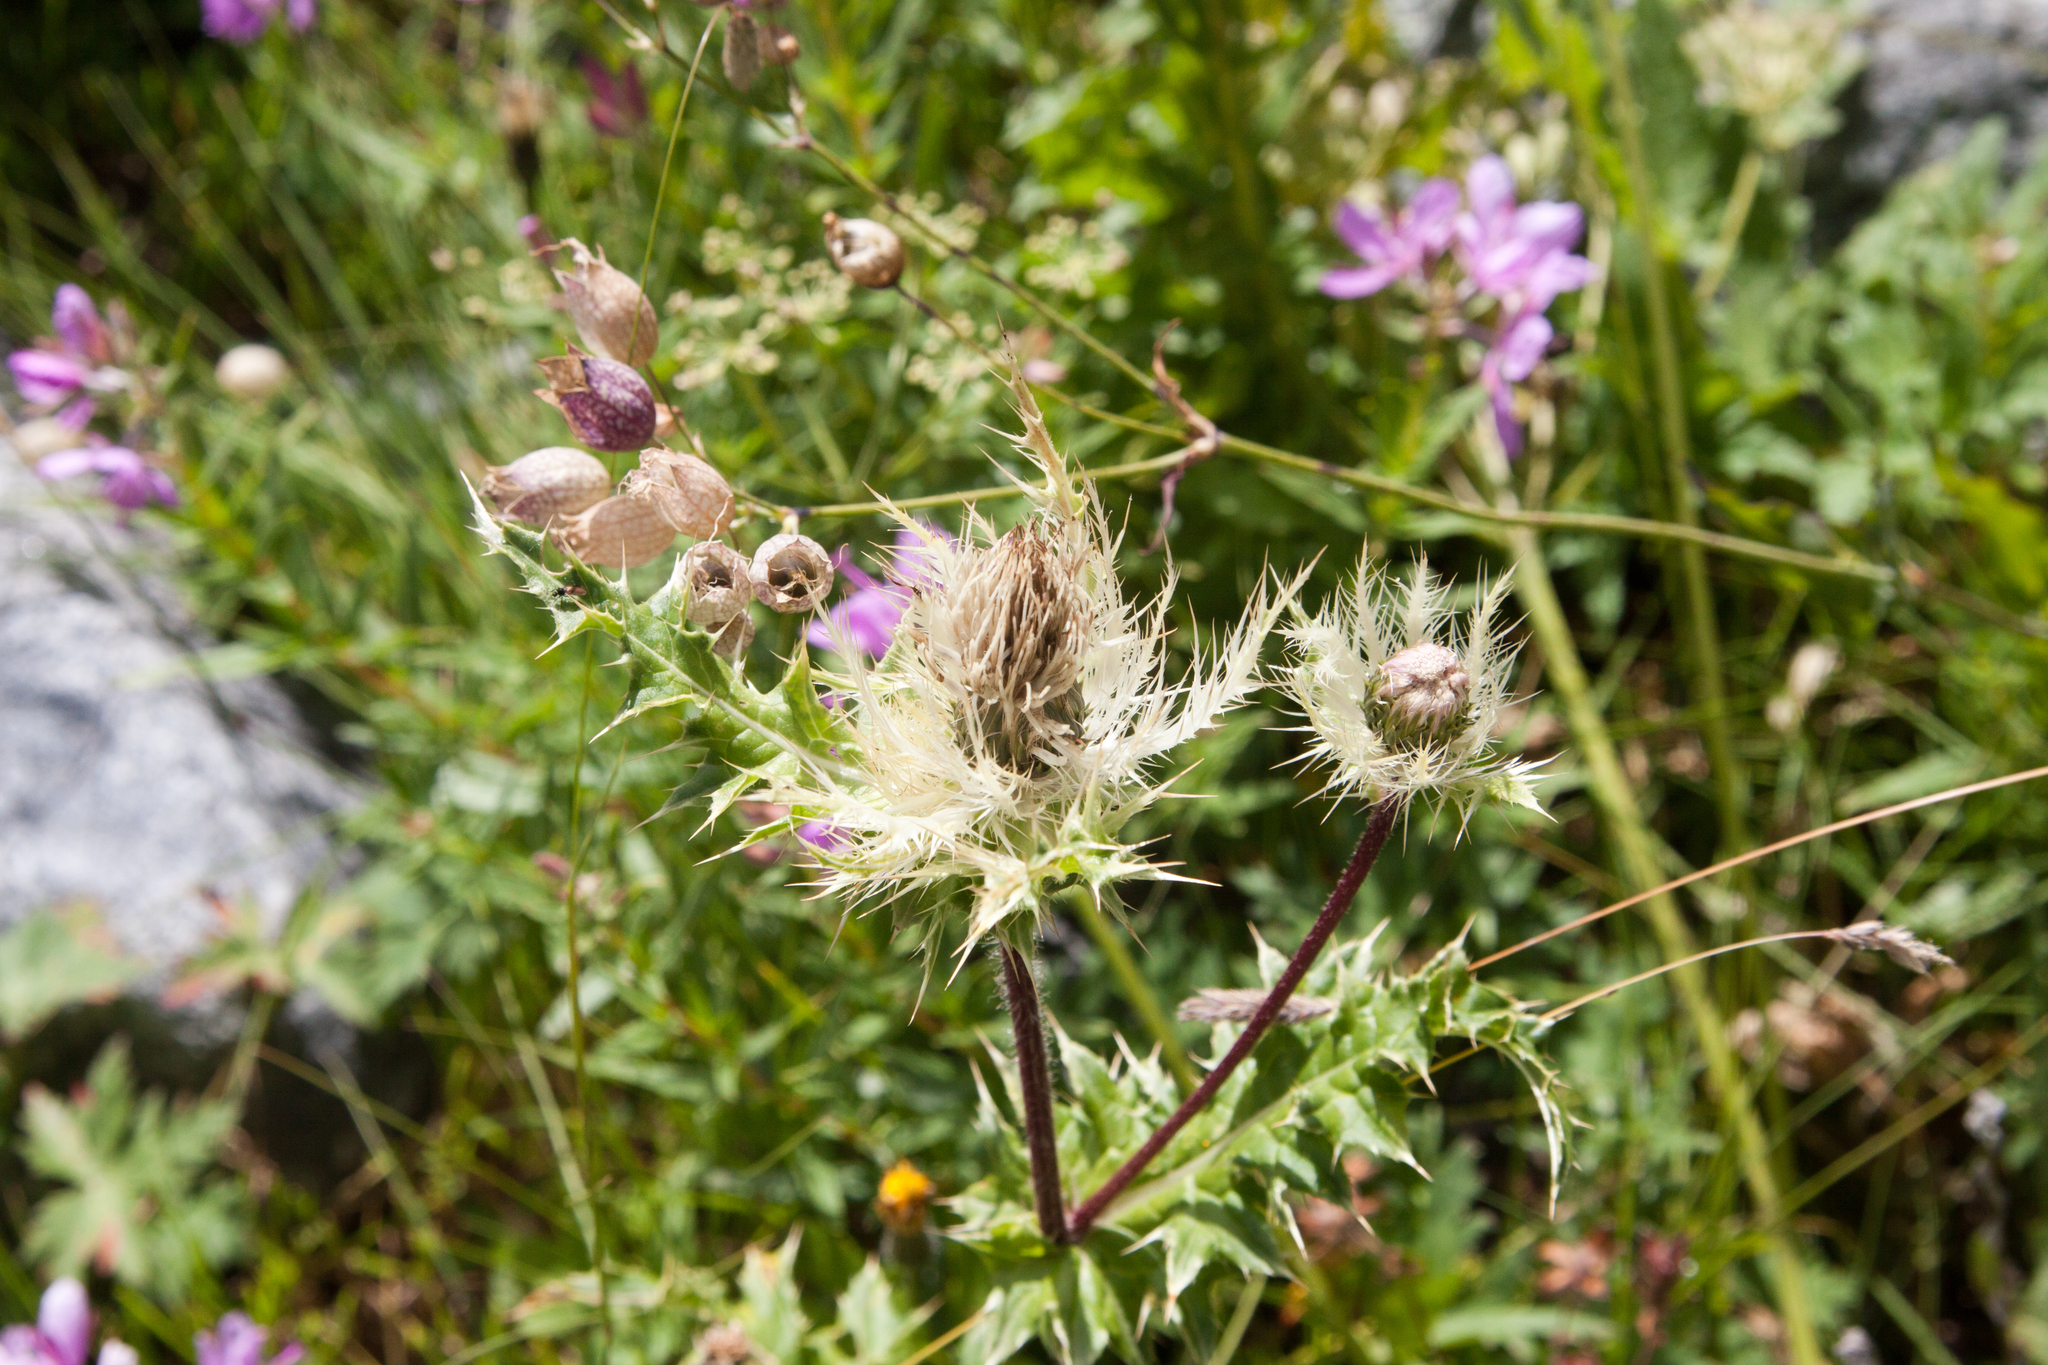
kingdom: Plantae
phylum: Tracheophyta
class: Magnoliopsida
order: Asterales
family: Asteraceae
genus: Cirsium
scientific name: Cirsium obvallatum
